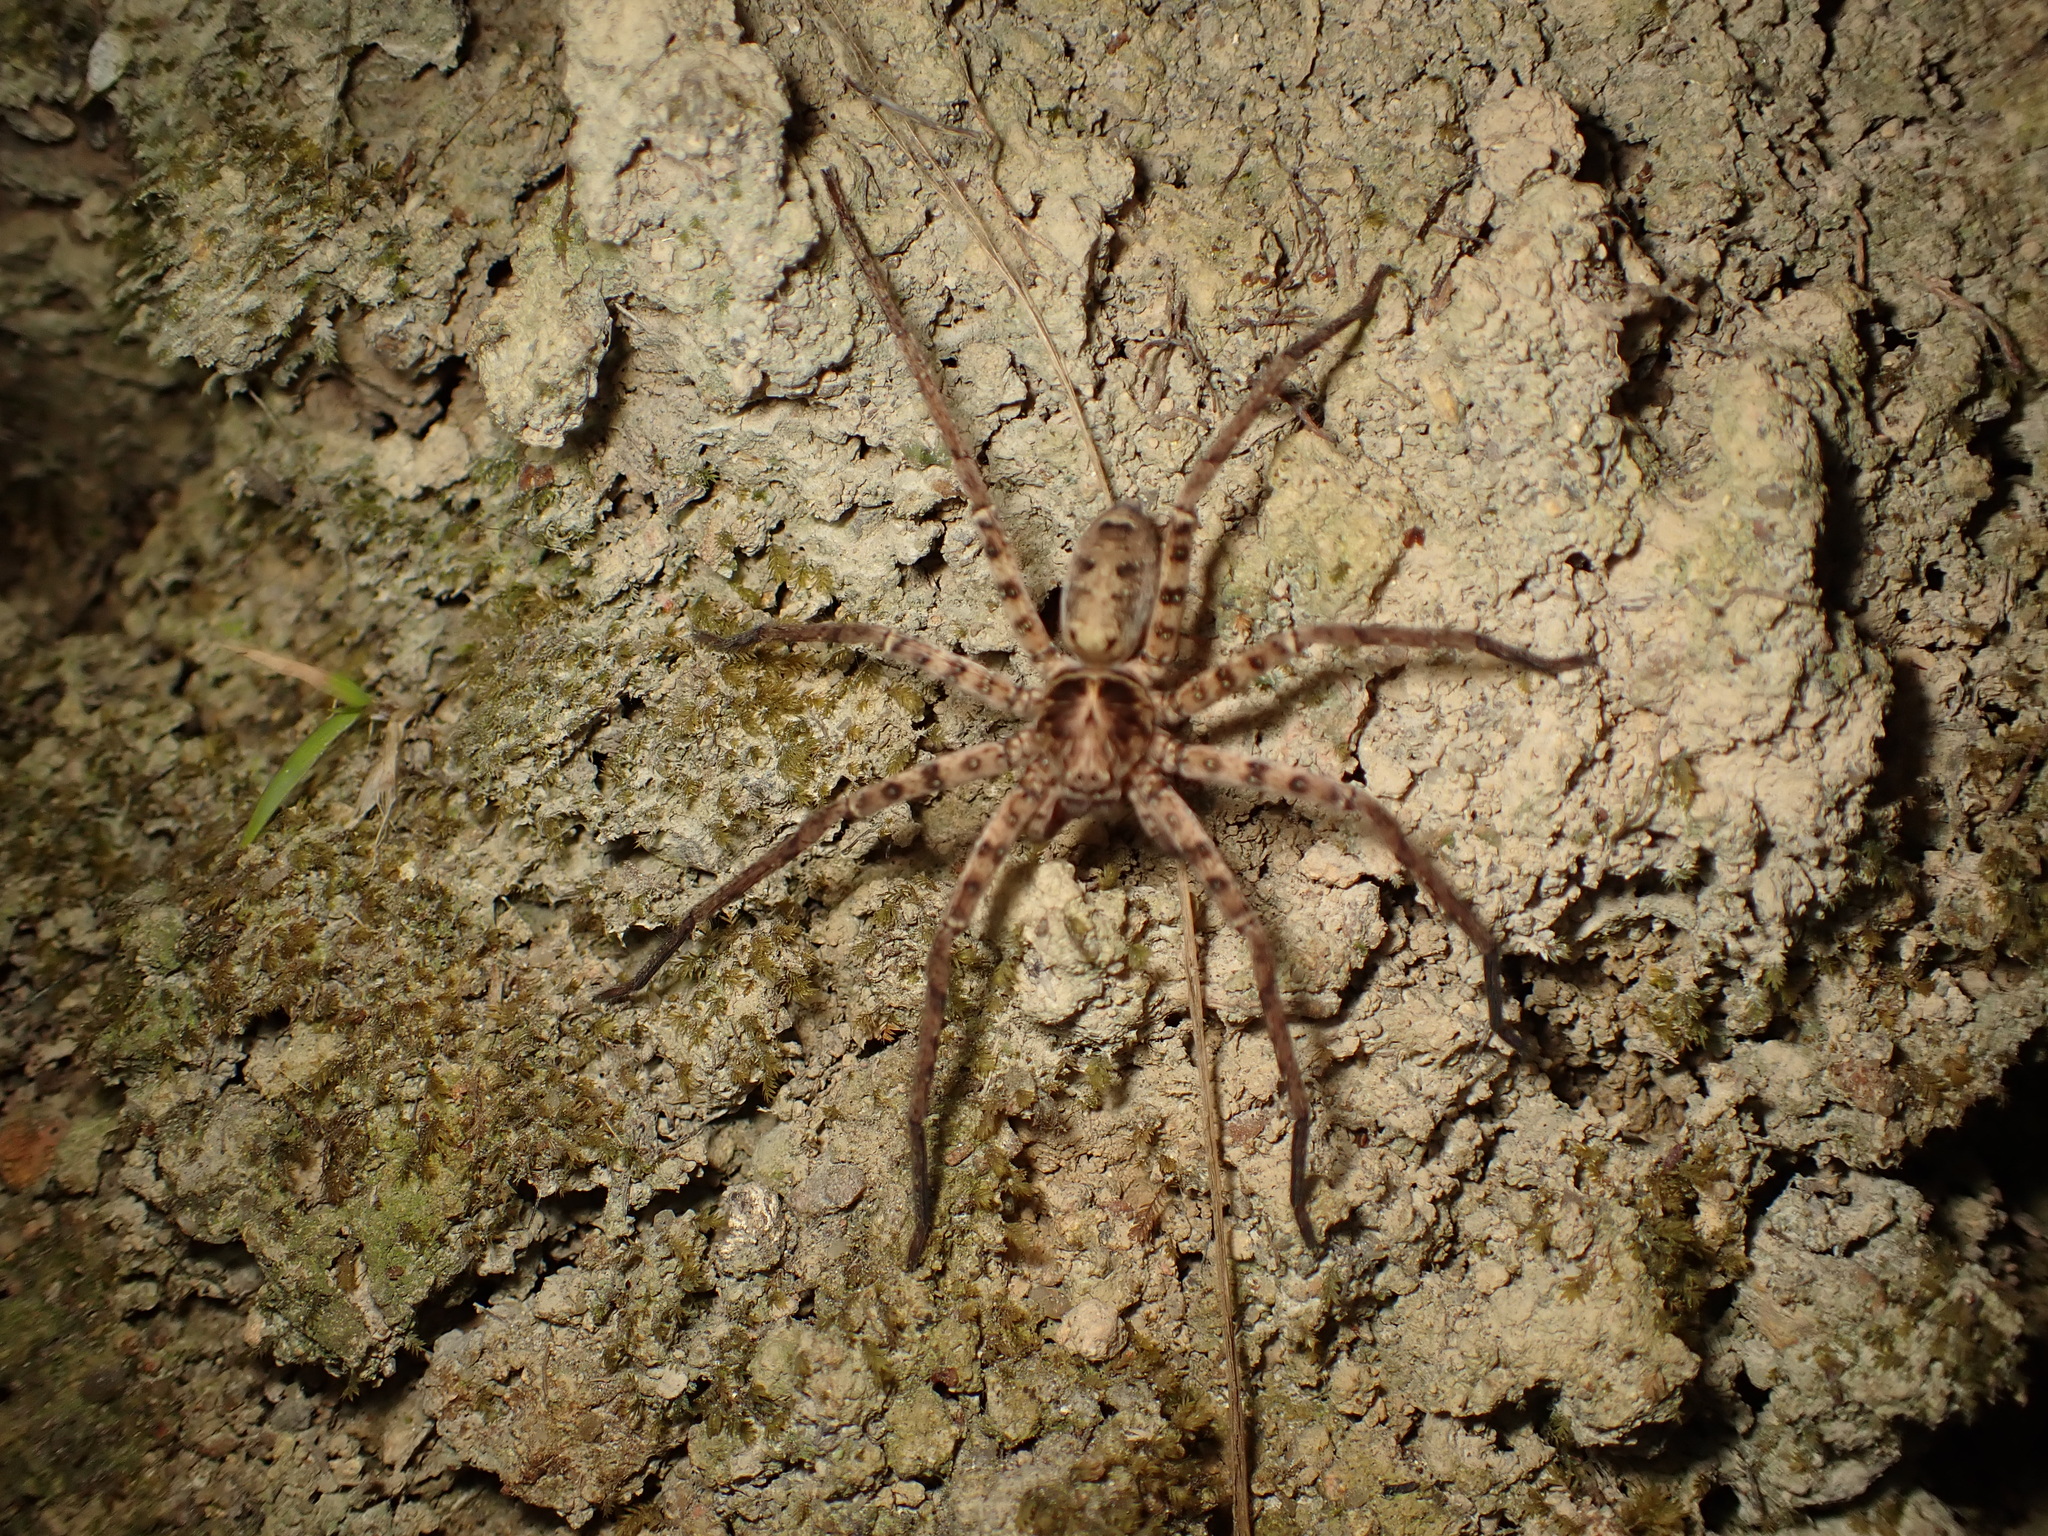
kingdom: Animalia
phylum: Arthropoda
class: Arachnida
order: Araneae
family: Sparassidae
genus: Heteropoda
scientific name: Heteropoda amphora
